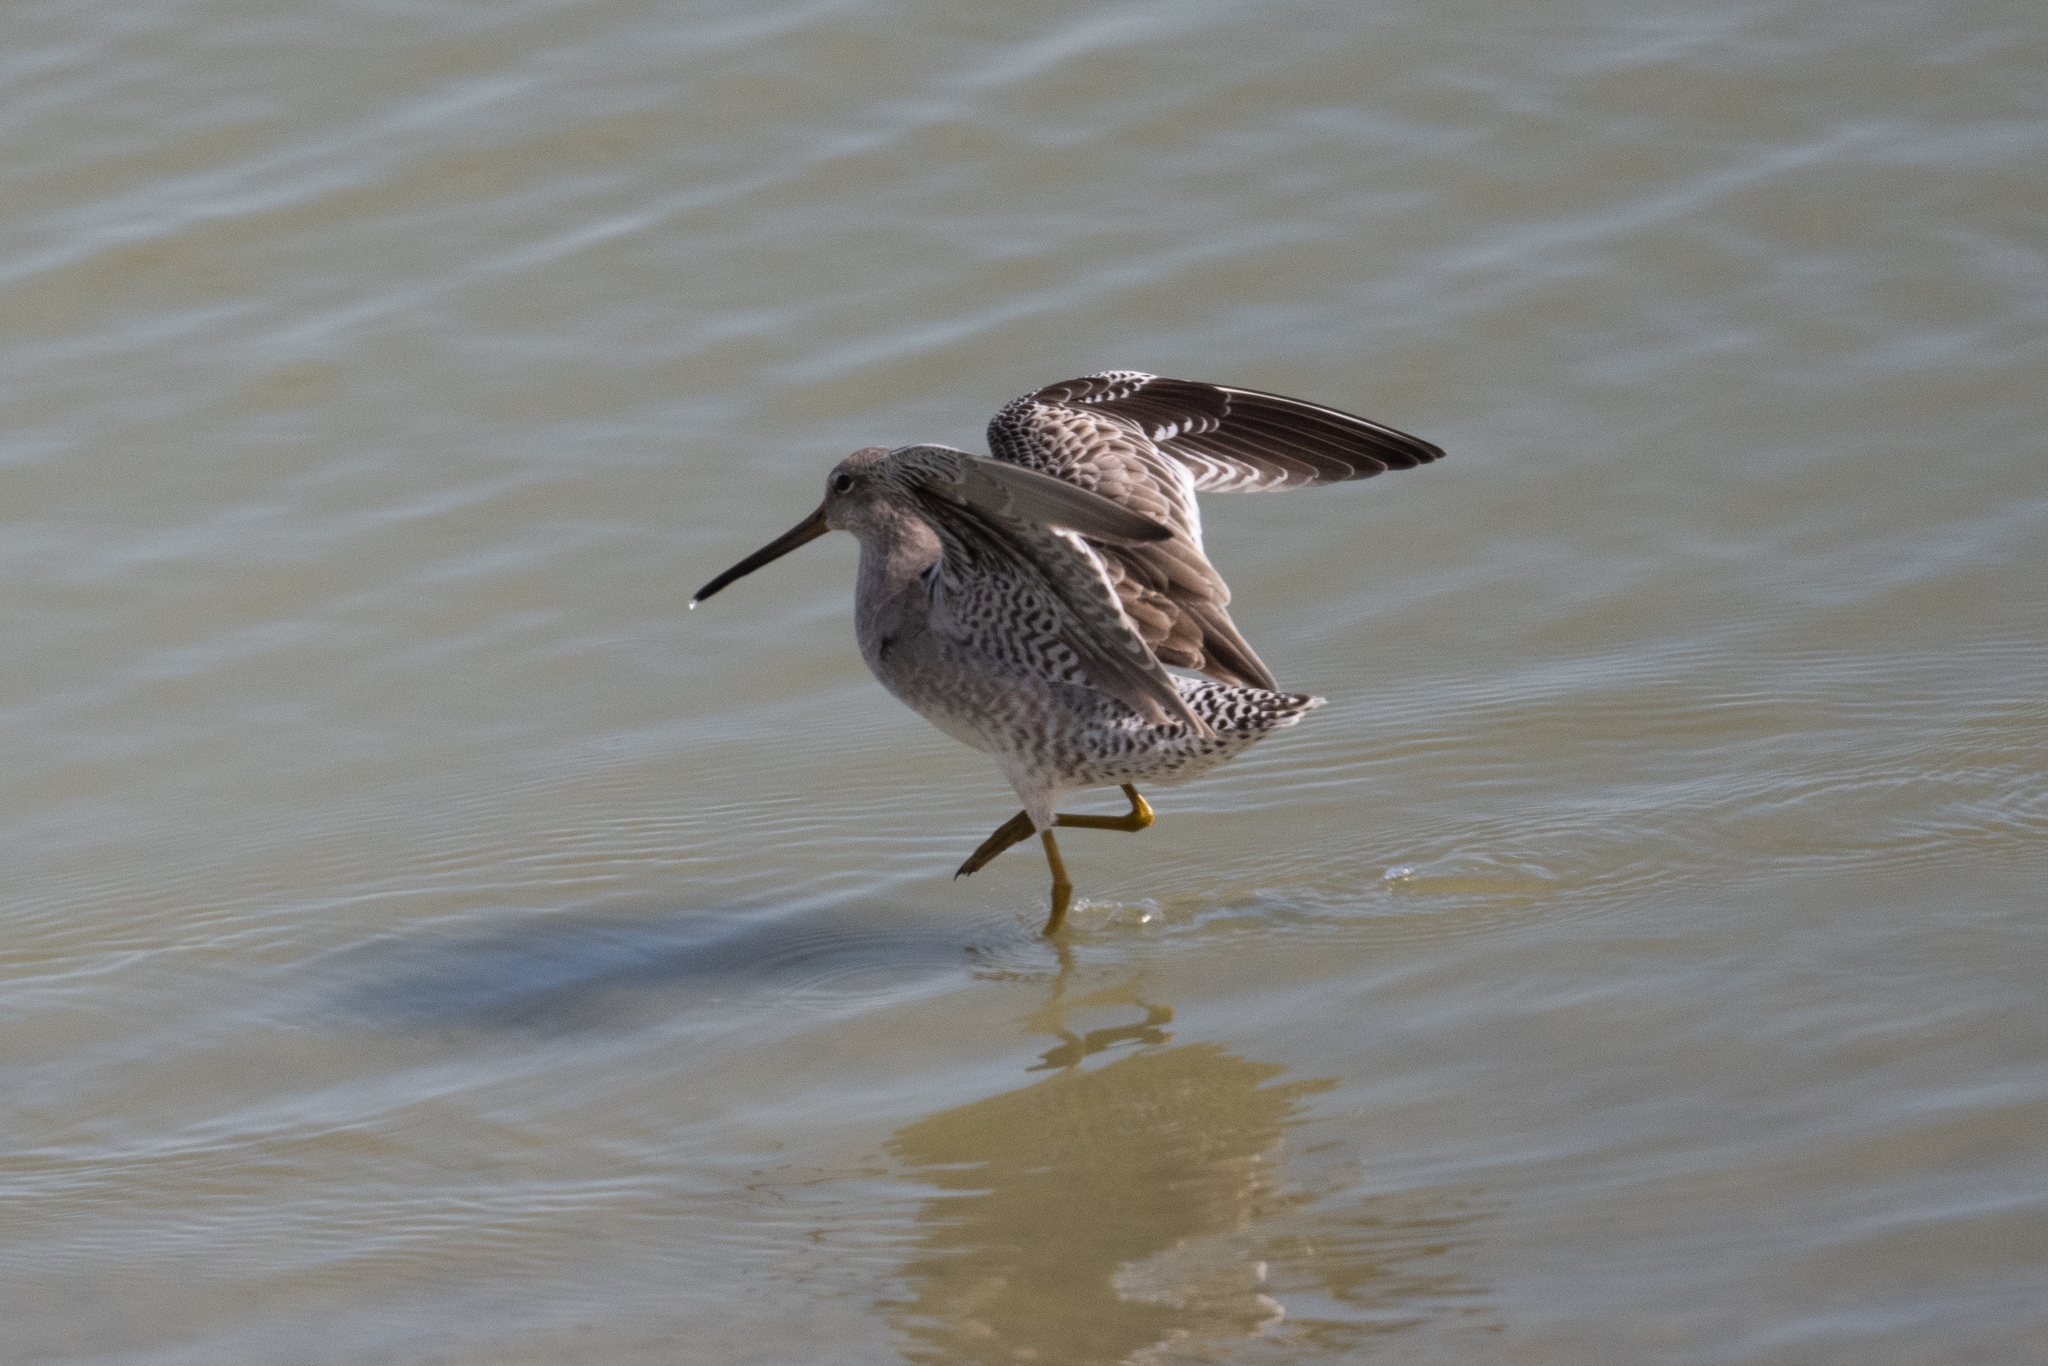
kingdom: Animalia
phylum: Chordata
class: Aves
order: Charadriiformes
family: Scolopacidae
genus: Limnodromus
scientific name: Limnodromus scolopaceus
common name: Long-billed dowitcher
